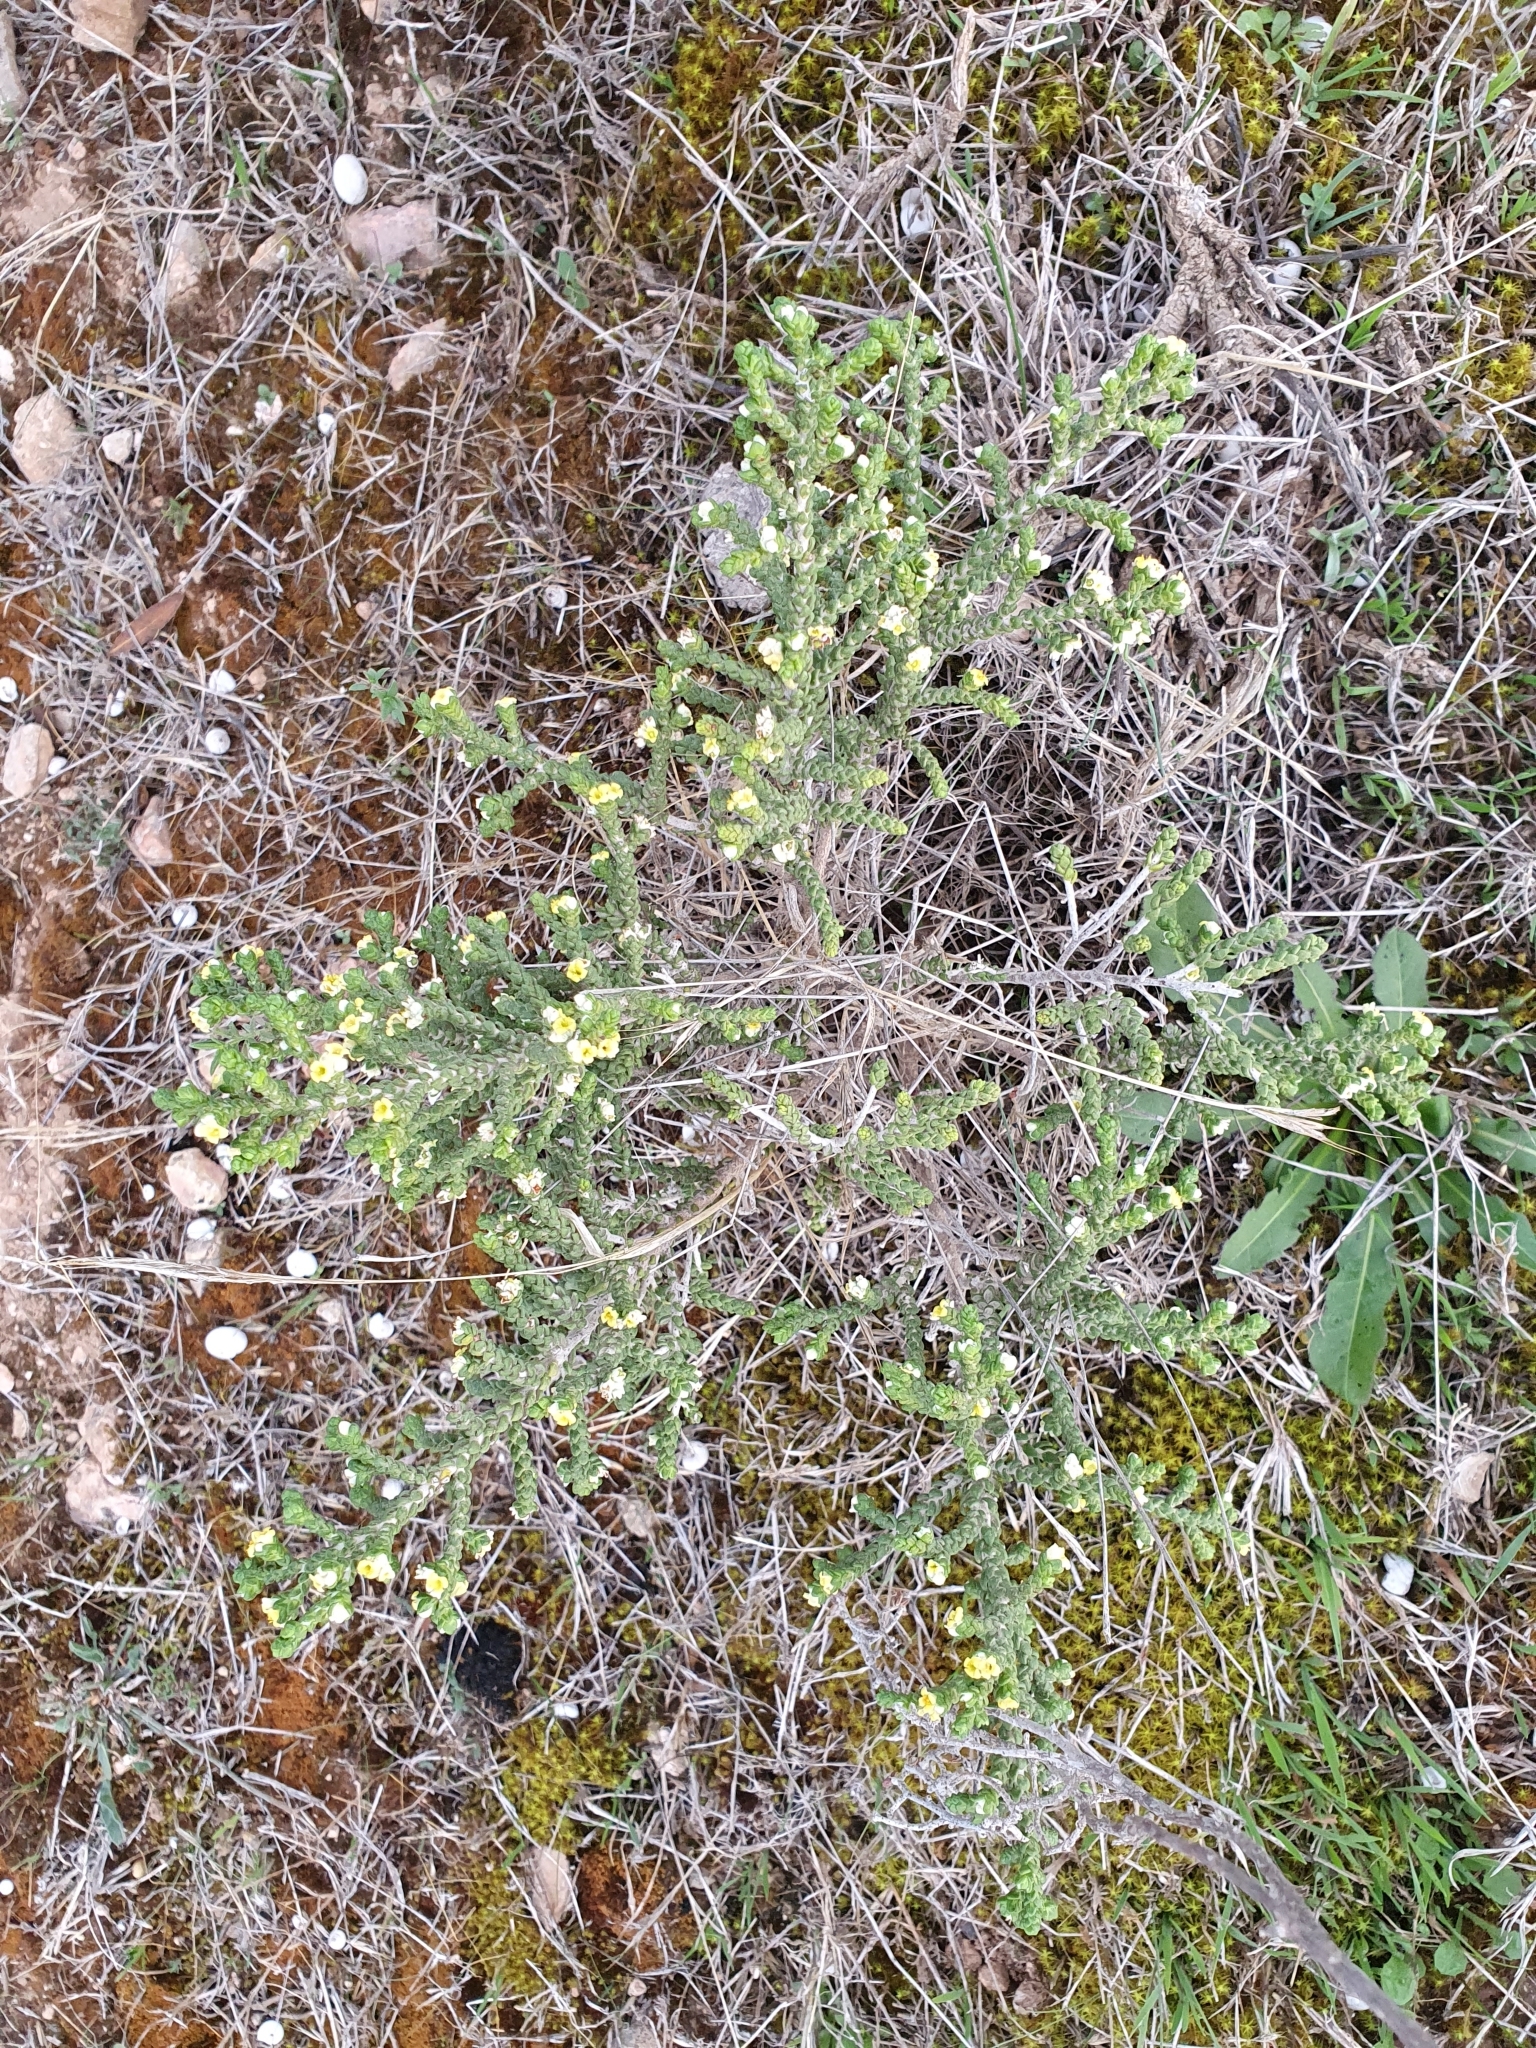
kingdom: Plantae
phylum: Tracheophyta
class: Magnoliopsida
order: Malvales
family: Thymelaeaceae
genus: Thymelaea
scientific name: Thymelaea hirsuta
